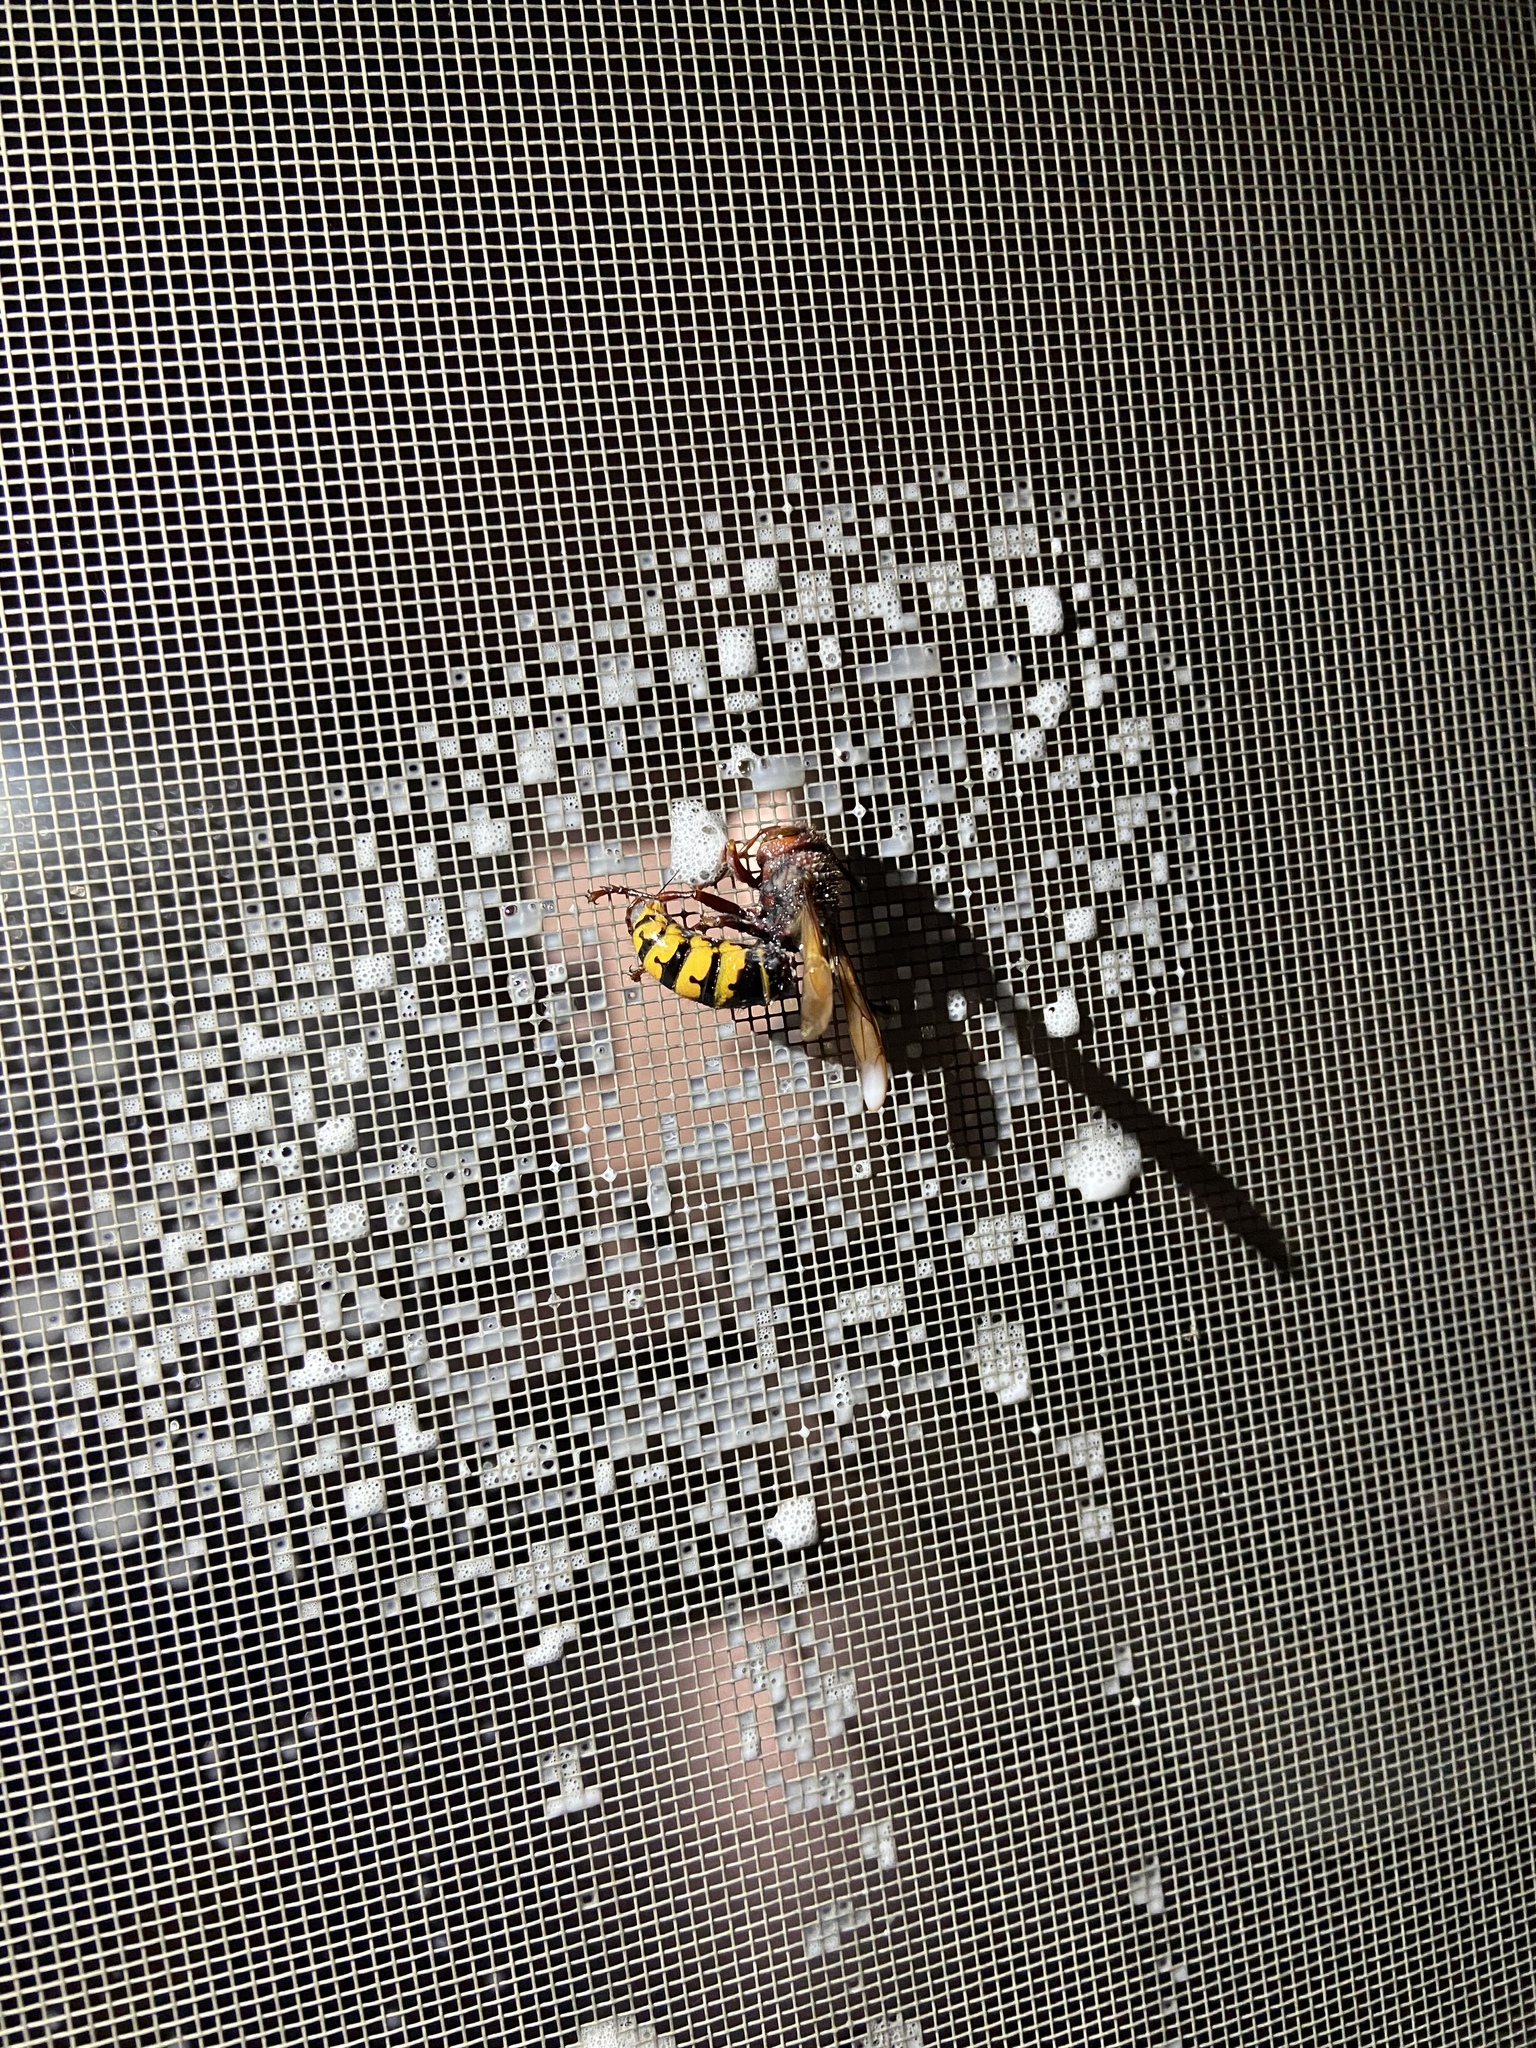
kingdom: Animalia
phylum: Arthropoda
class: Insecta
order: Hymenoptera
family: Vespidae
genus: Vespa
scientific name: Vespa crabro
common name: Hornet
